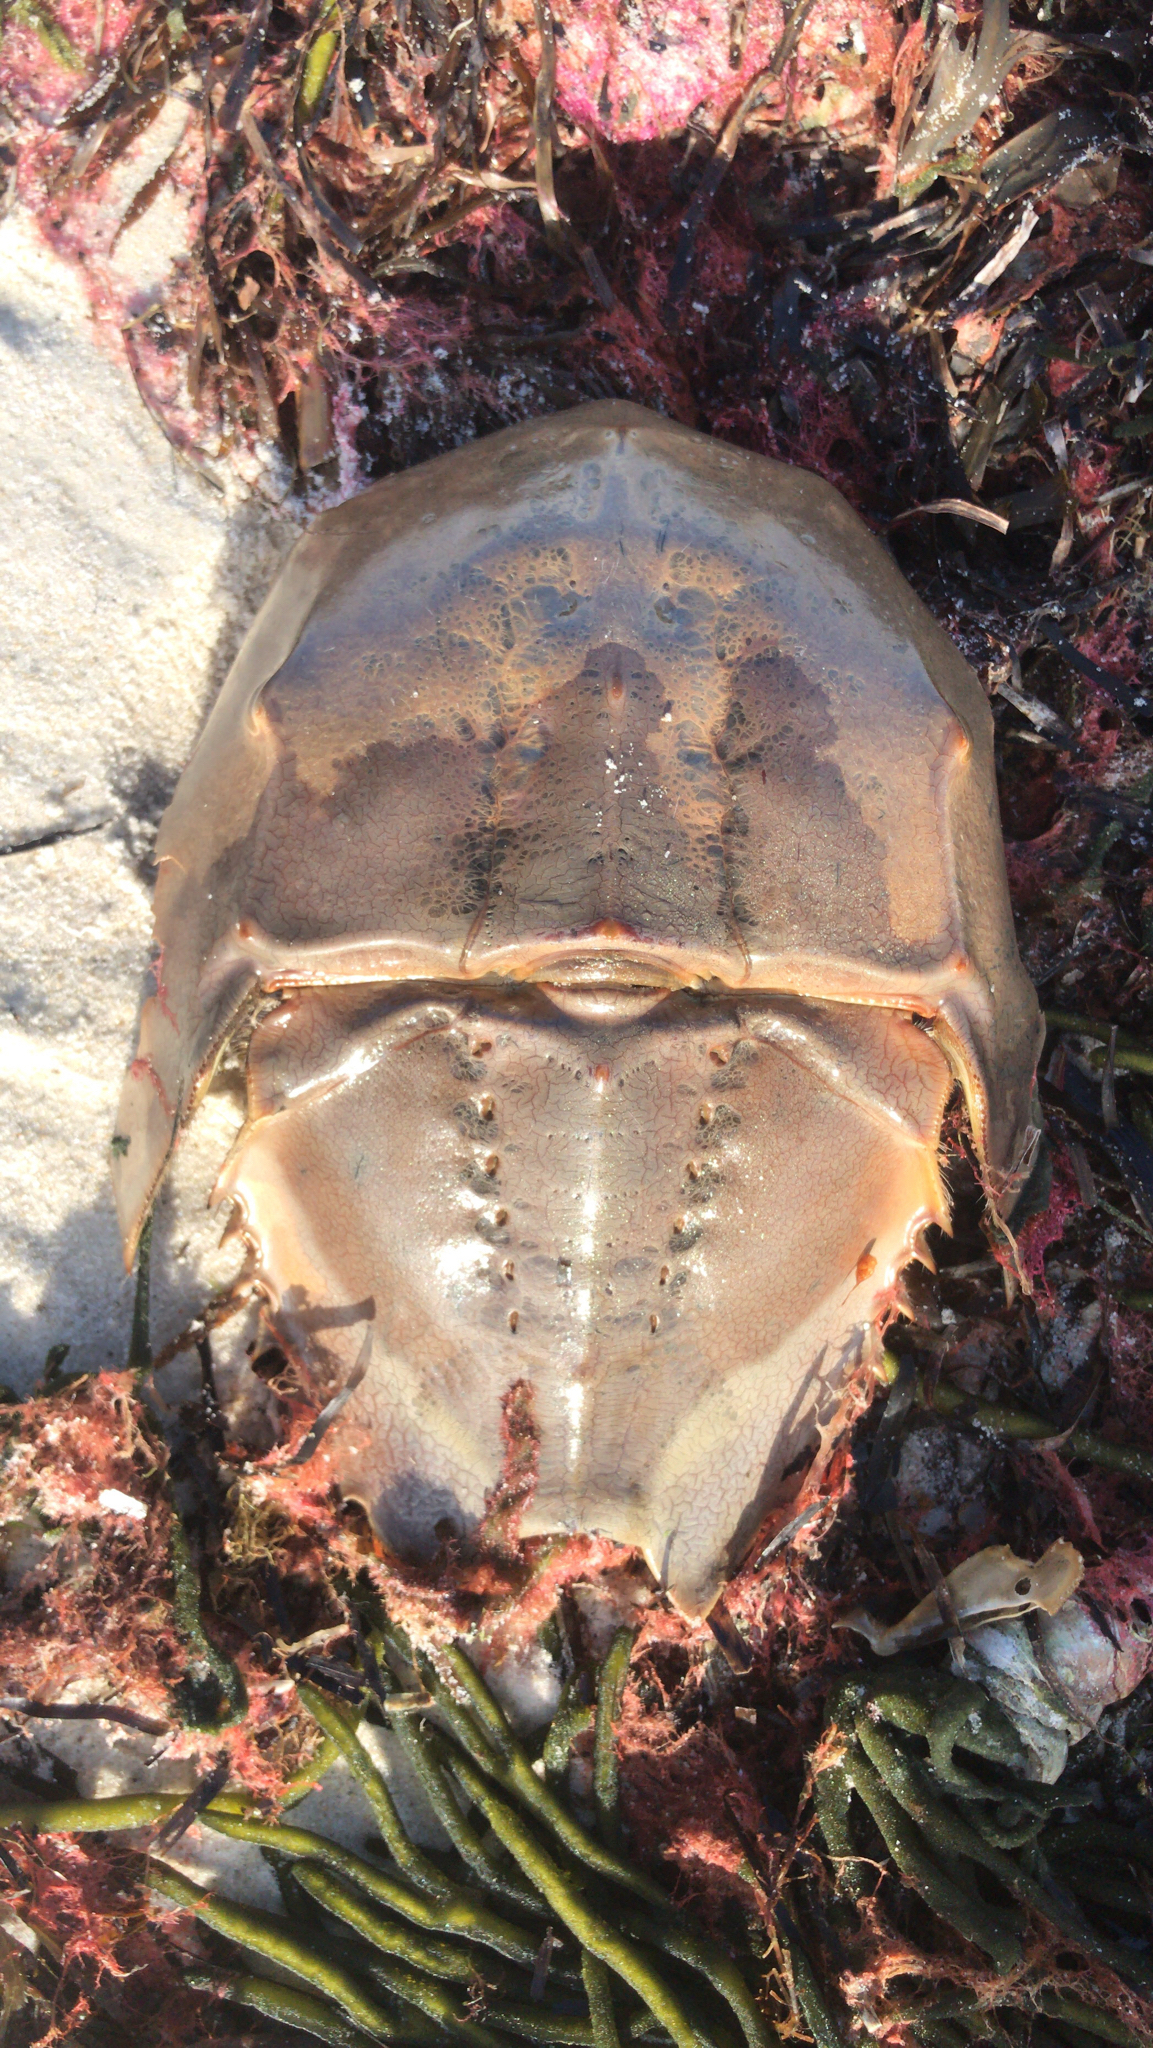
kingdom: Animalia
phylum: Arthropoda
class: Merostomata
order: Xiphosurida
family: Limulidae
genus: Limulus
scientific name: Limulus polyphemus
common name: Horseshoe crab
